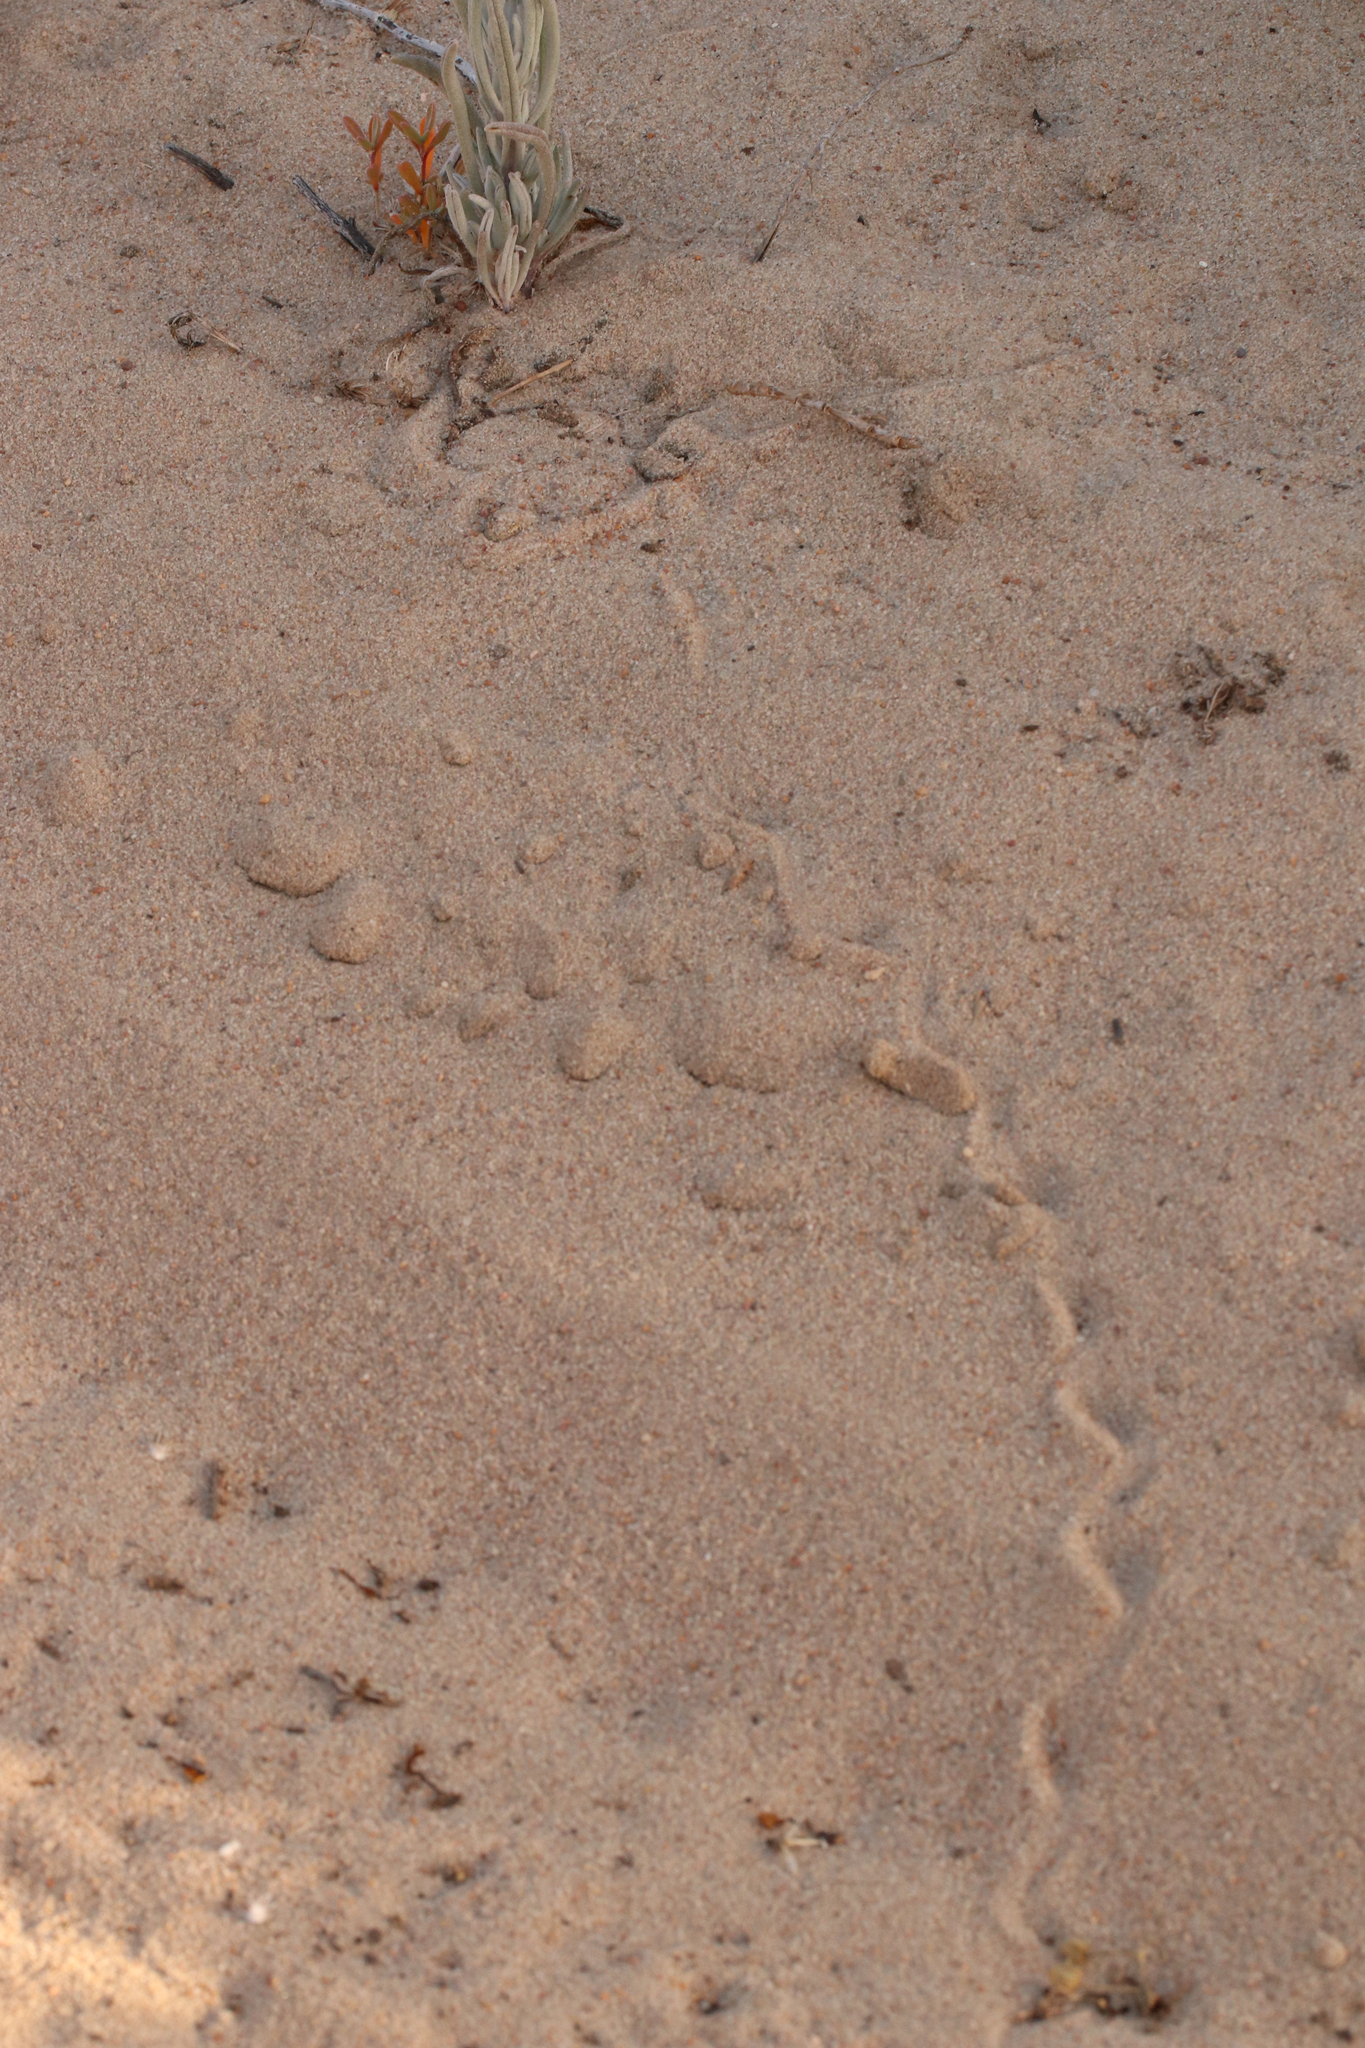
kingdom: Animalia
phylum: Chordata
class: Squamata
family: Viperidae
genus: Bitis
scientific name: Bitis schneideri
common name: Namaqua dwarf adder
